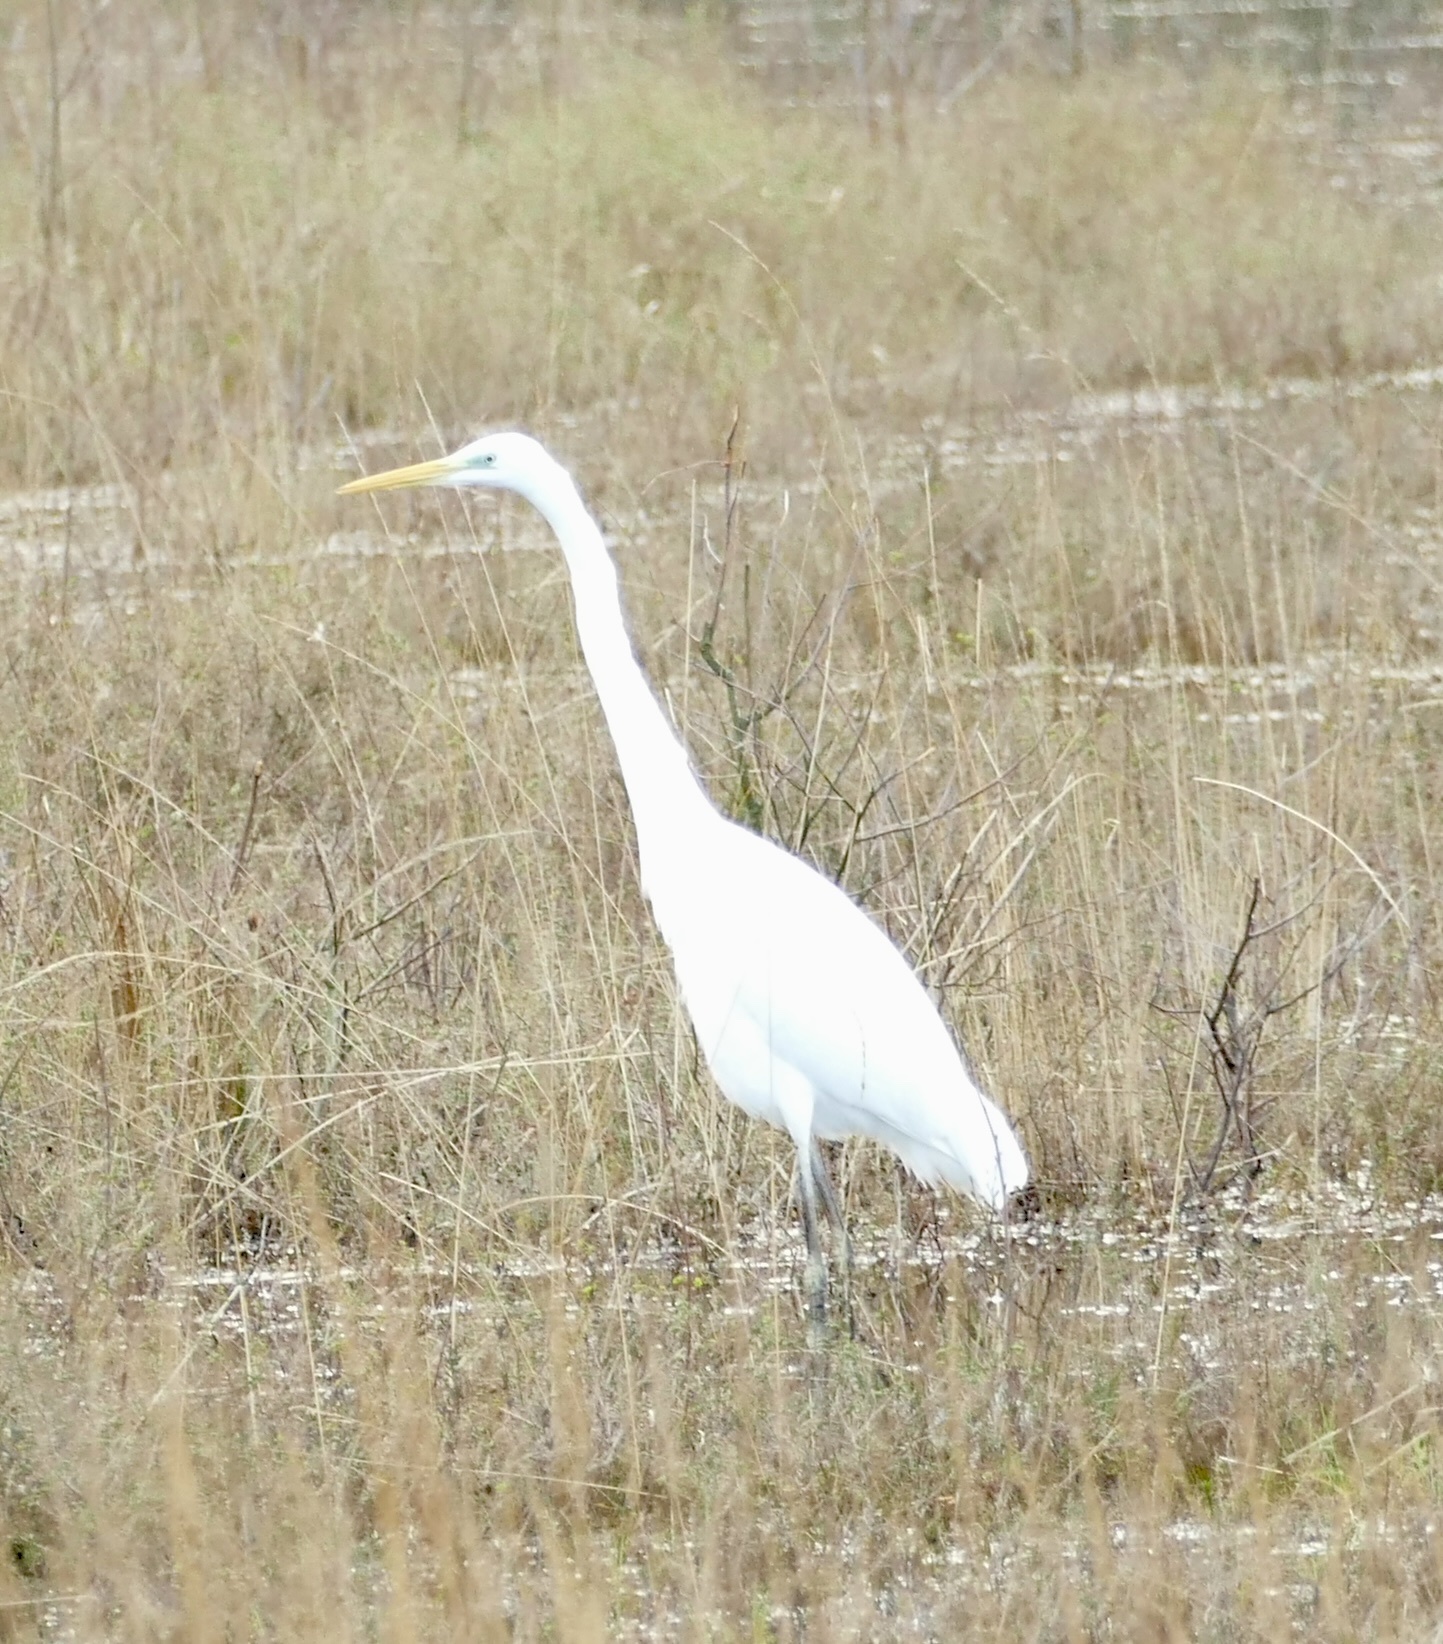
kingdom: Animalia
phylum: Chordata
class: Aves
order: Pelecaniformes
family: Ardeidae
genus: Ardea
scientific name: Ardea alba
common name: Great egret
